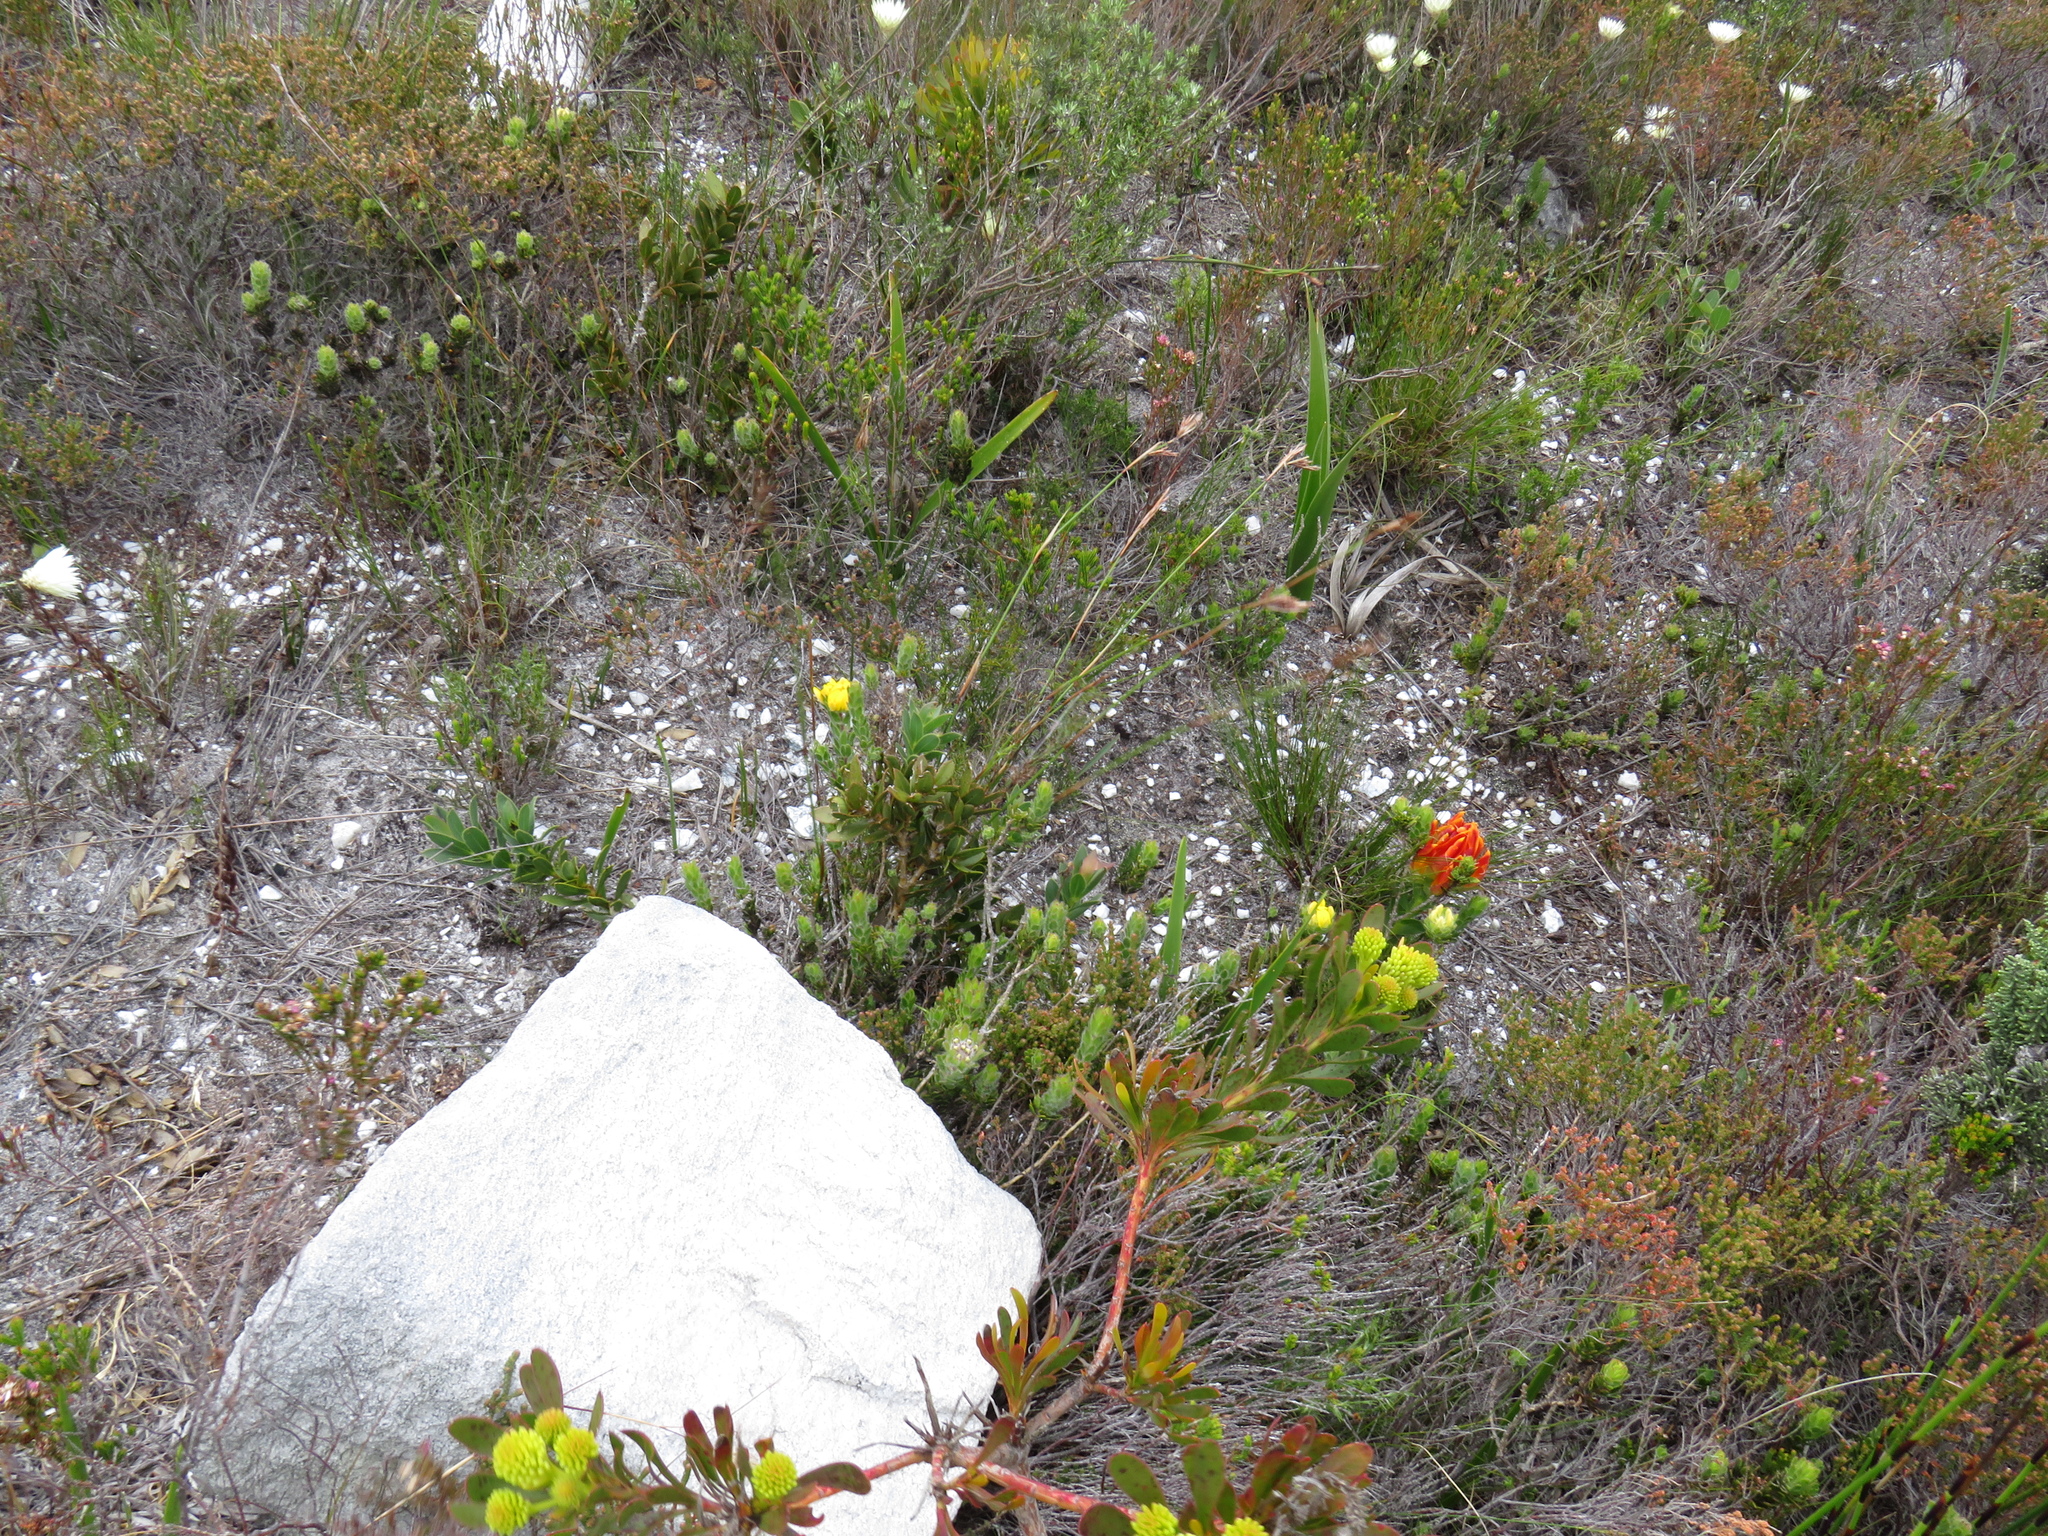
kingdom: Plantae
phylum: Tracheophyta
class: Magnoliopsida
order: Fabales
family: Fabaceae
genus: Liparia
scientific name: Liparia splendens
